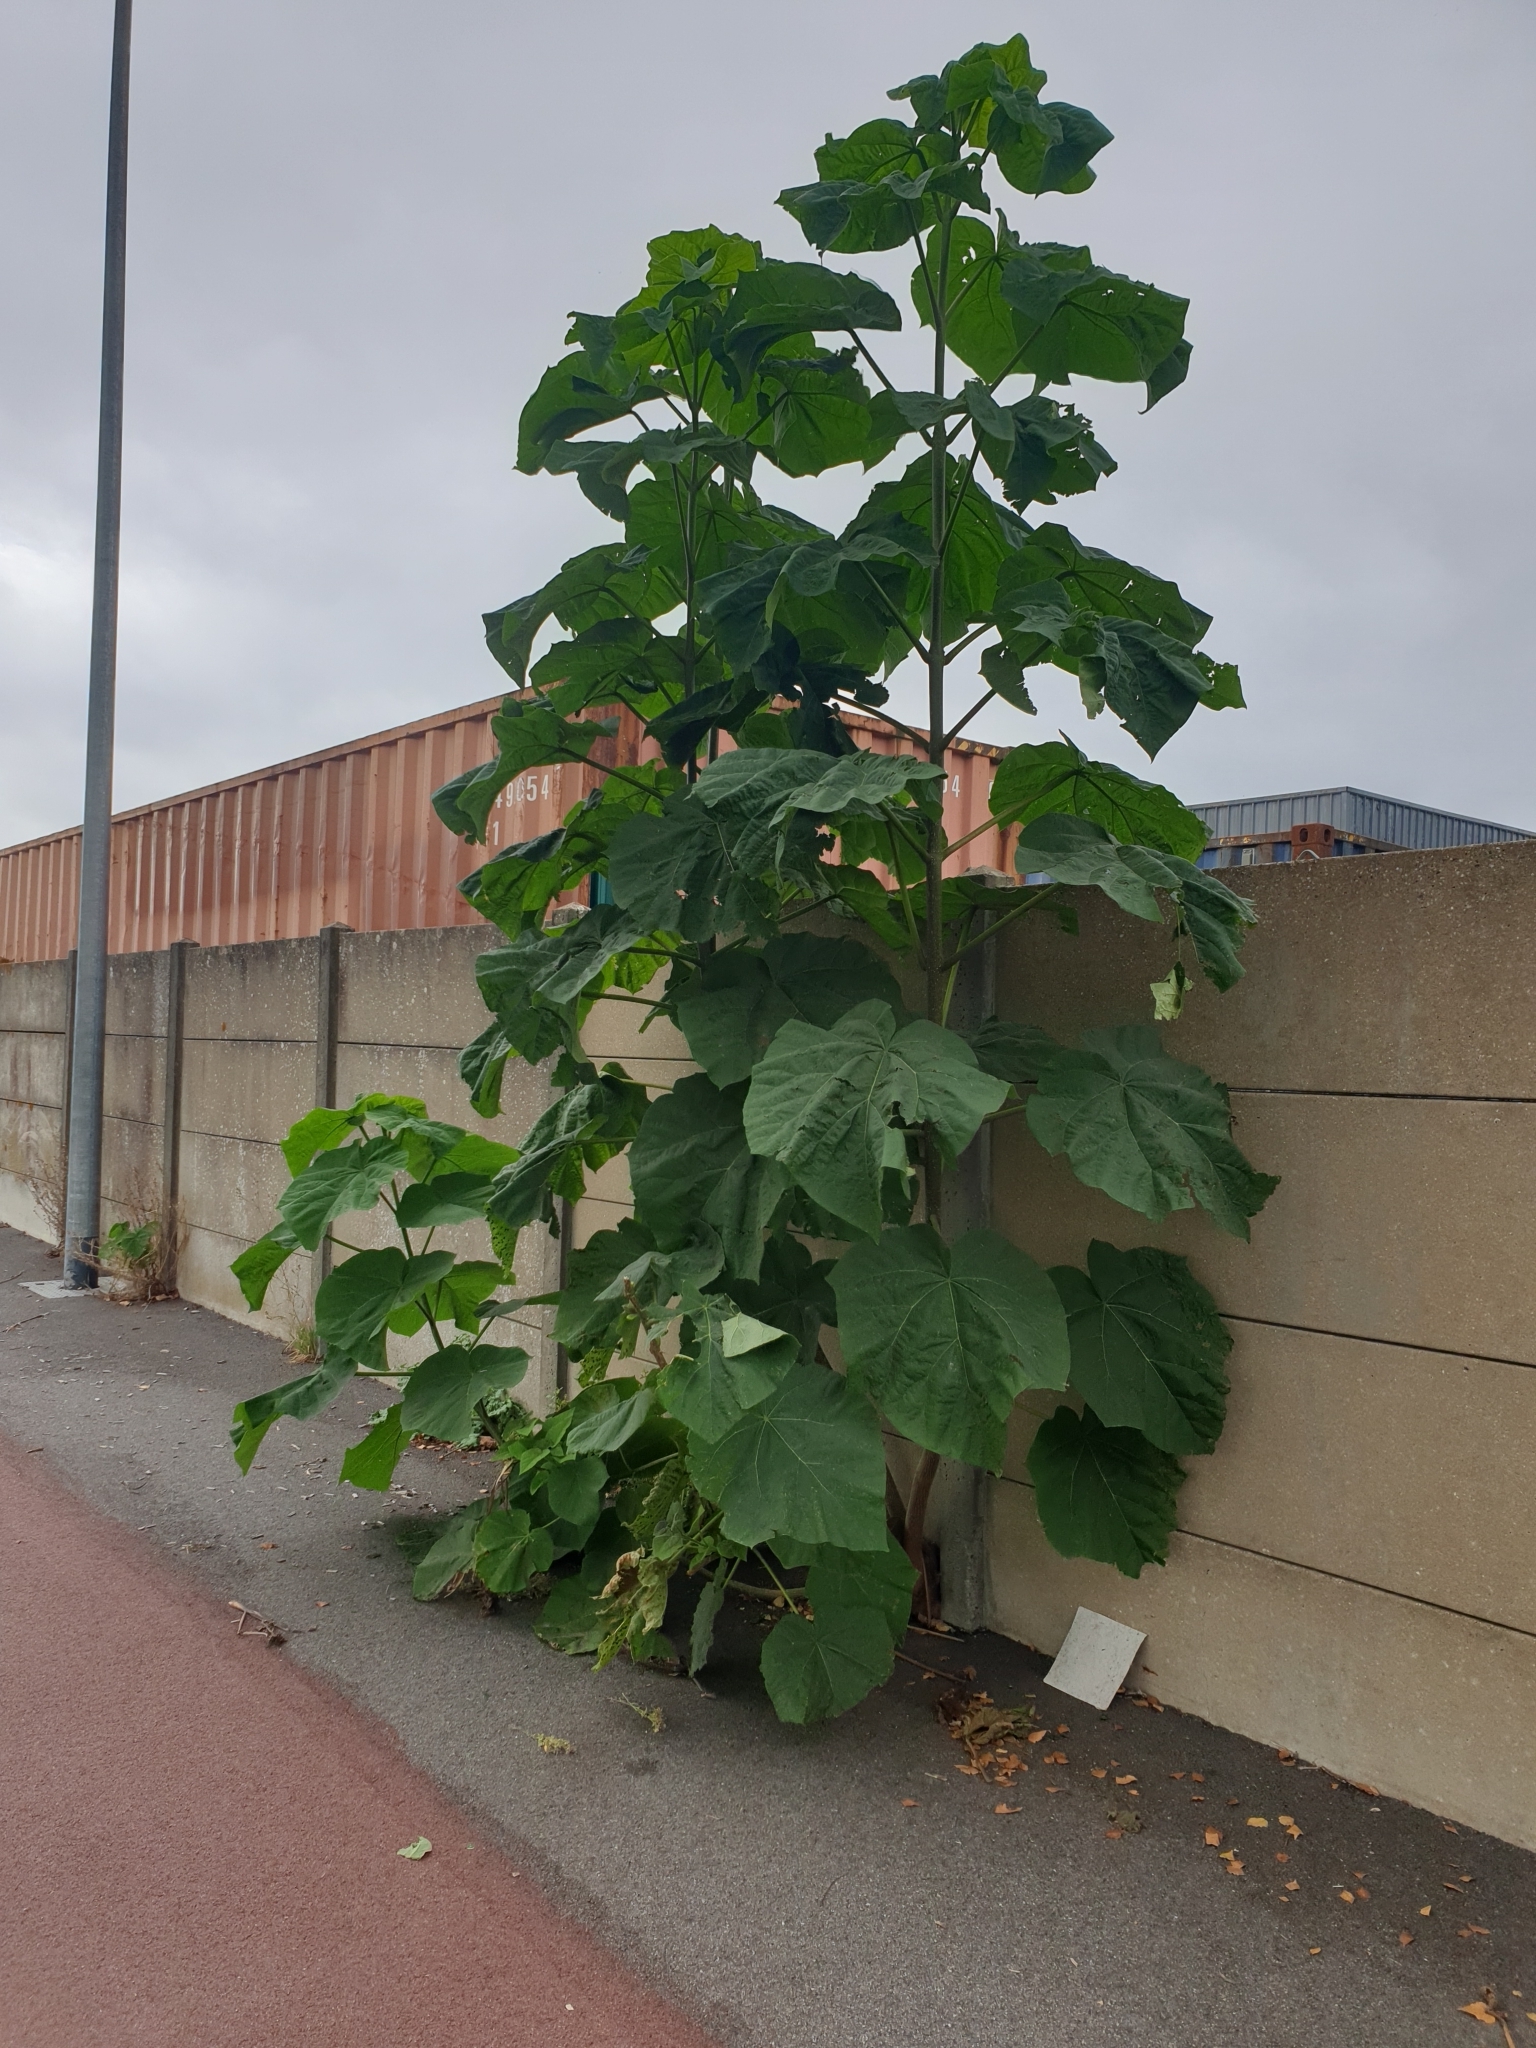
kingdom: Plantae
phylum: Tracheophyta
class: Magnoliopsida
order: Lamiales
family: Paulowniaceae
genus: Paulownia
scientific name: Paulownia tomentosa
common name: Foxglove-tree
